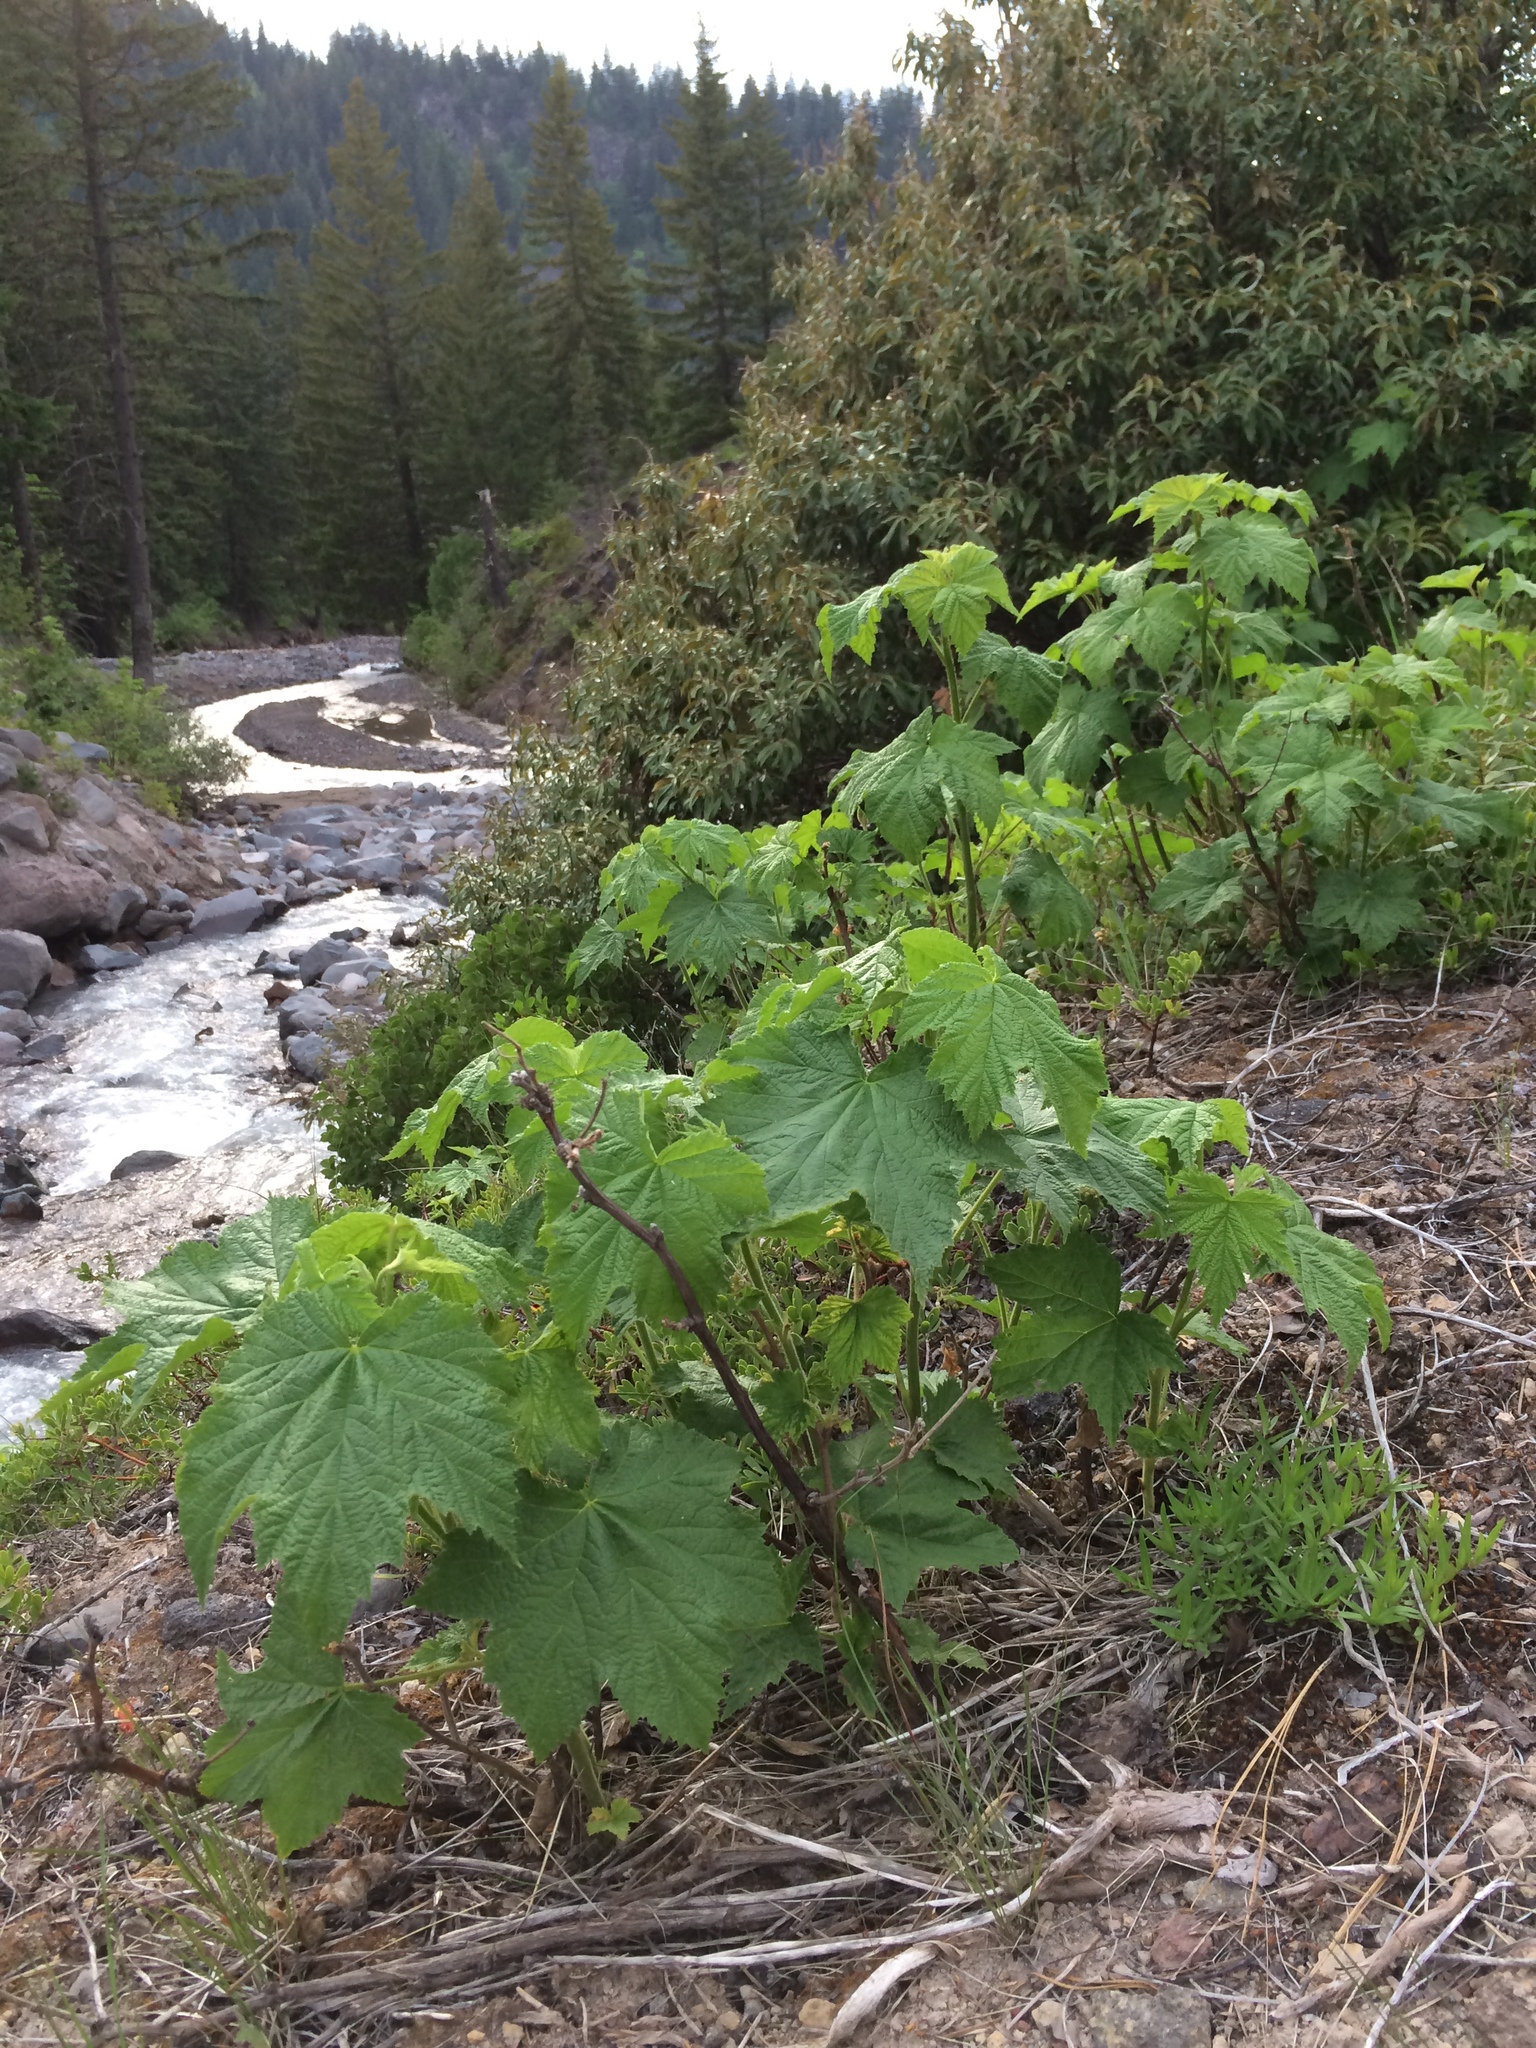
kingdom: Plantae
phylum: Tracheophyta
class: Magnoliopsida
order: Rosales
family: Rosaceae
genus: Rubus
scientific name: Rubus parviflorus
